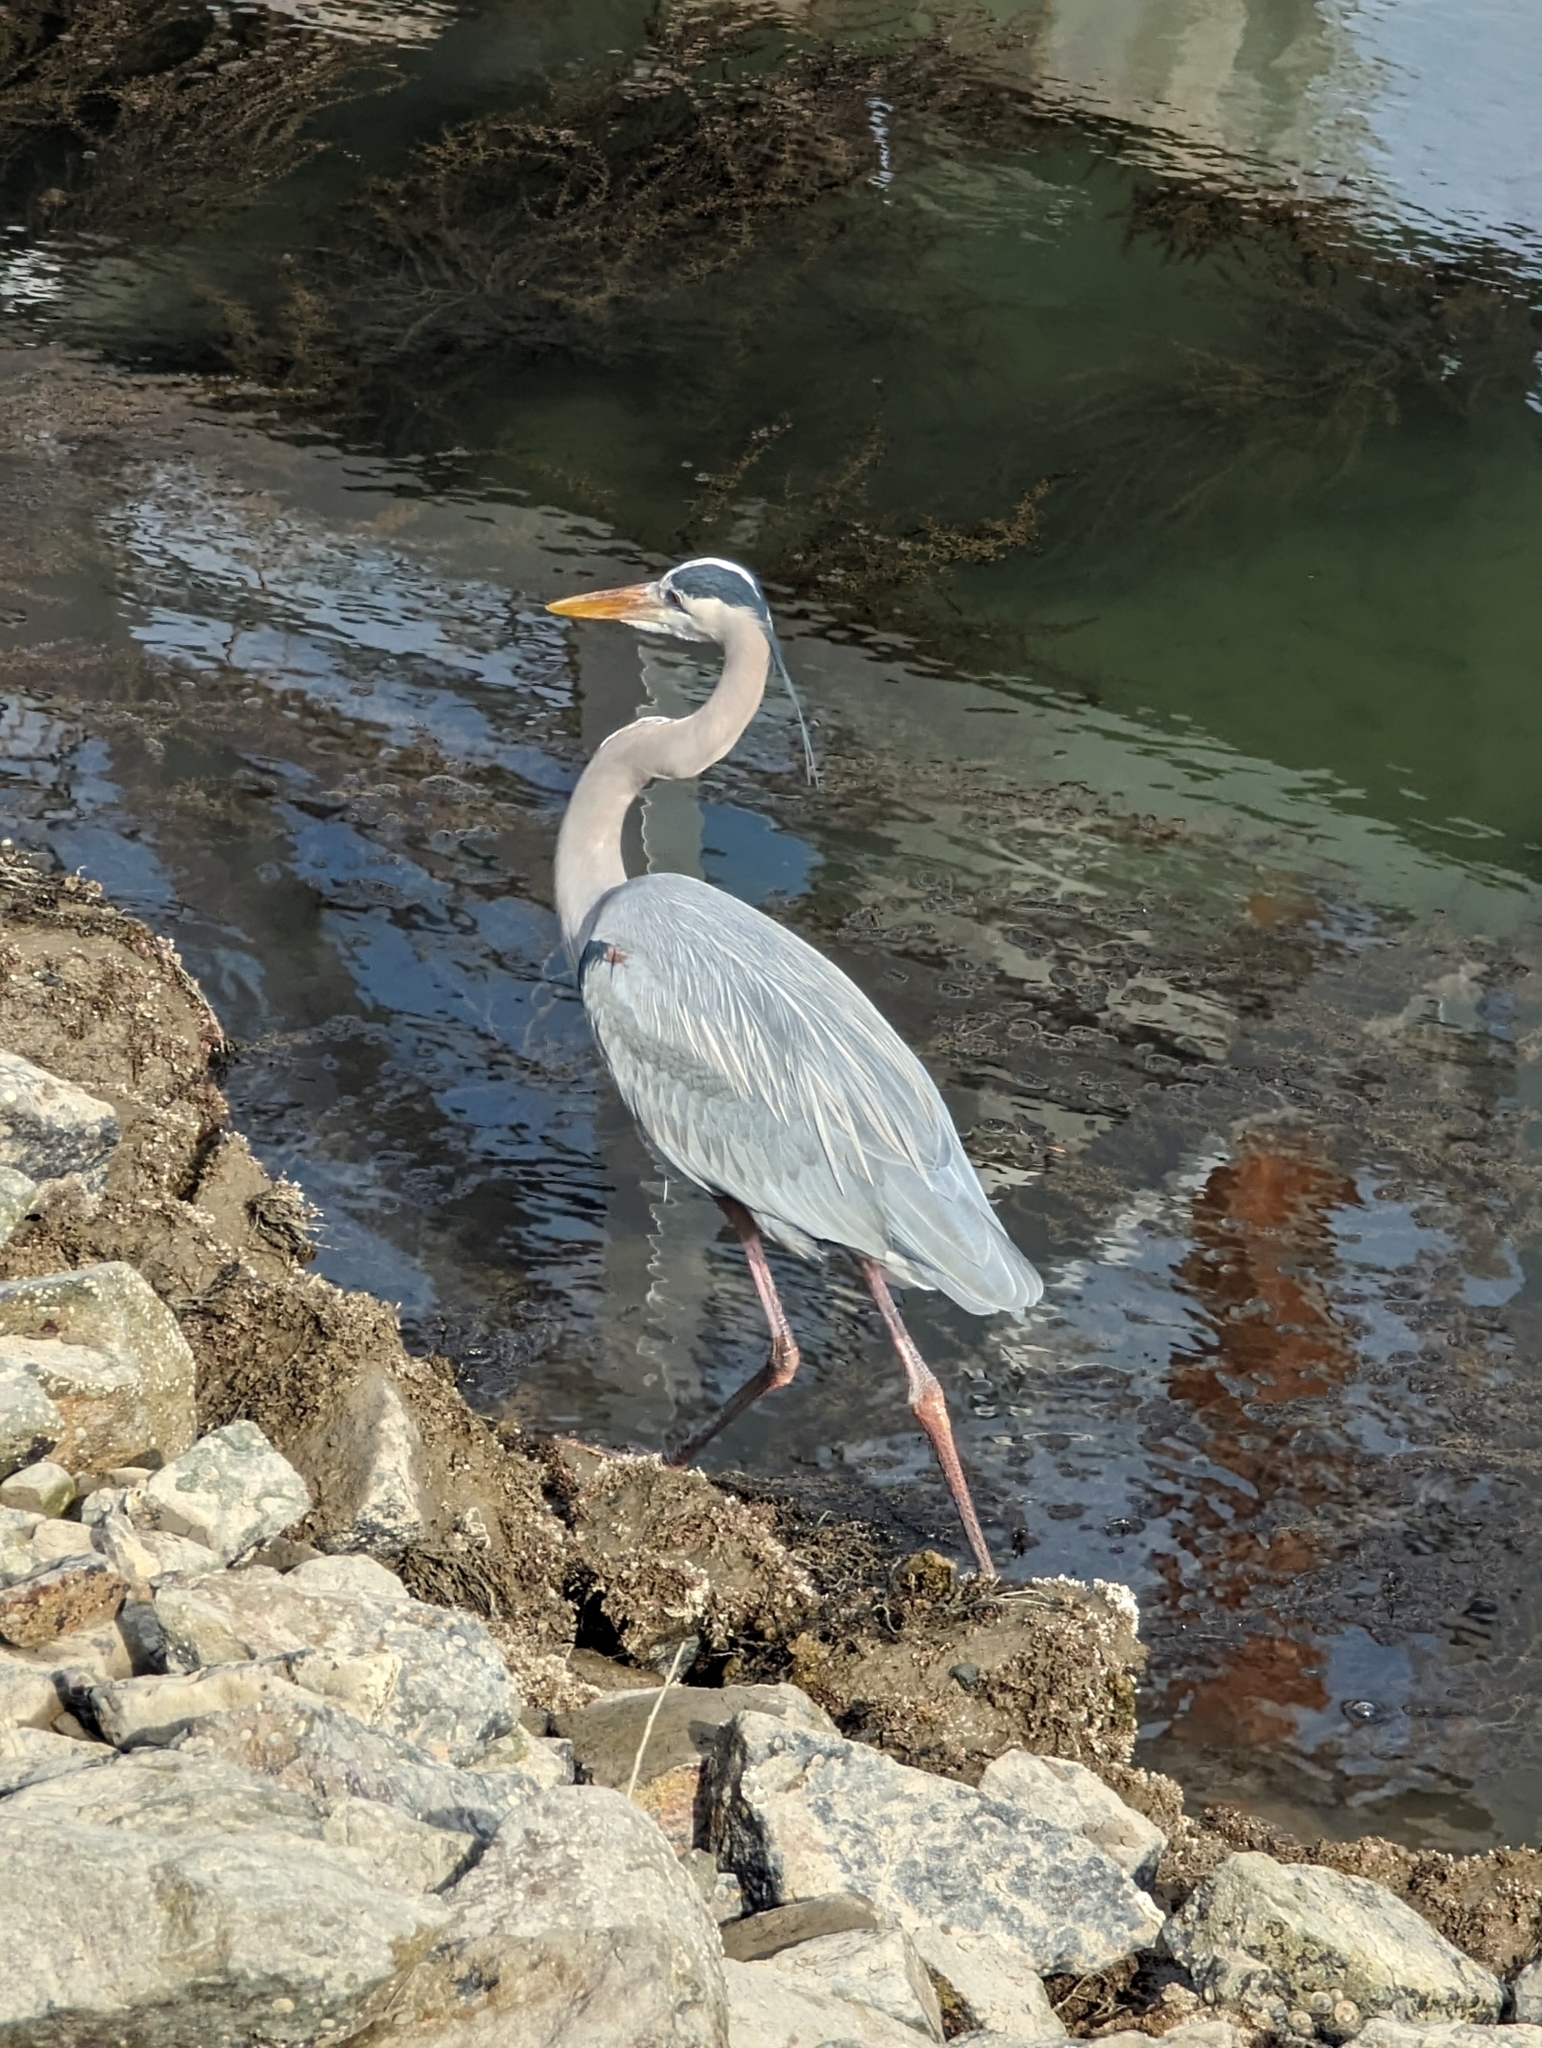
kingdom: Animalia
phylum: Chordata
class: Aves
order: Pelecaniformes
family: Ardeidae
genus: Ardea
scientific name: Ardea herodias
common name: Great blue heron
